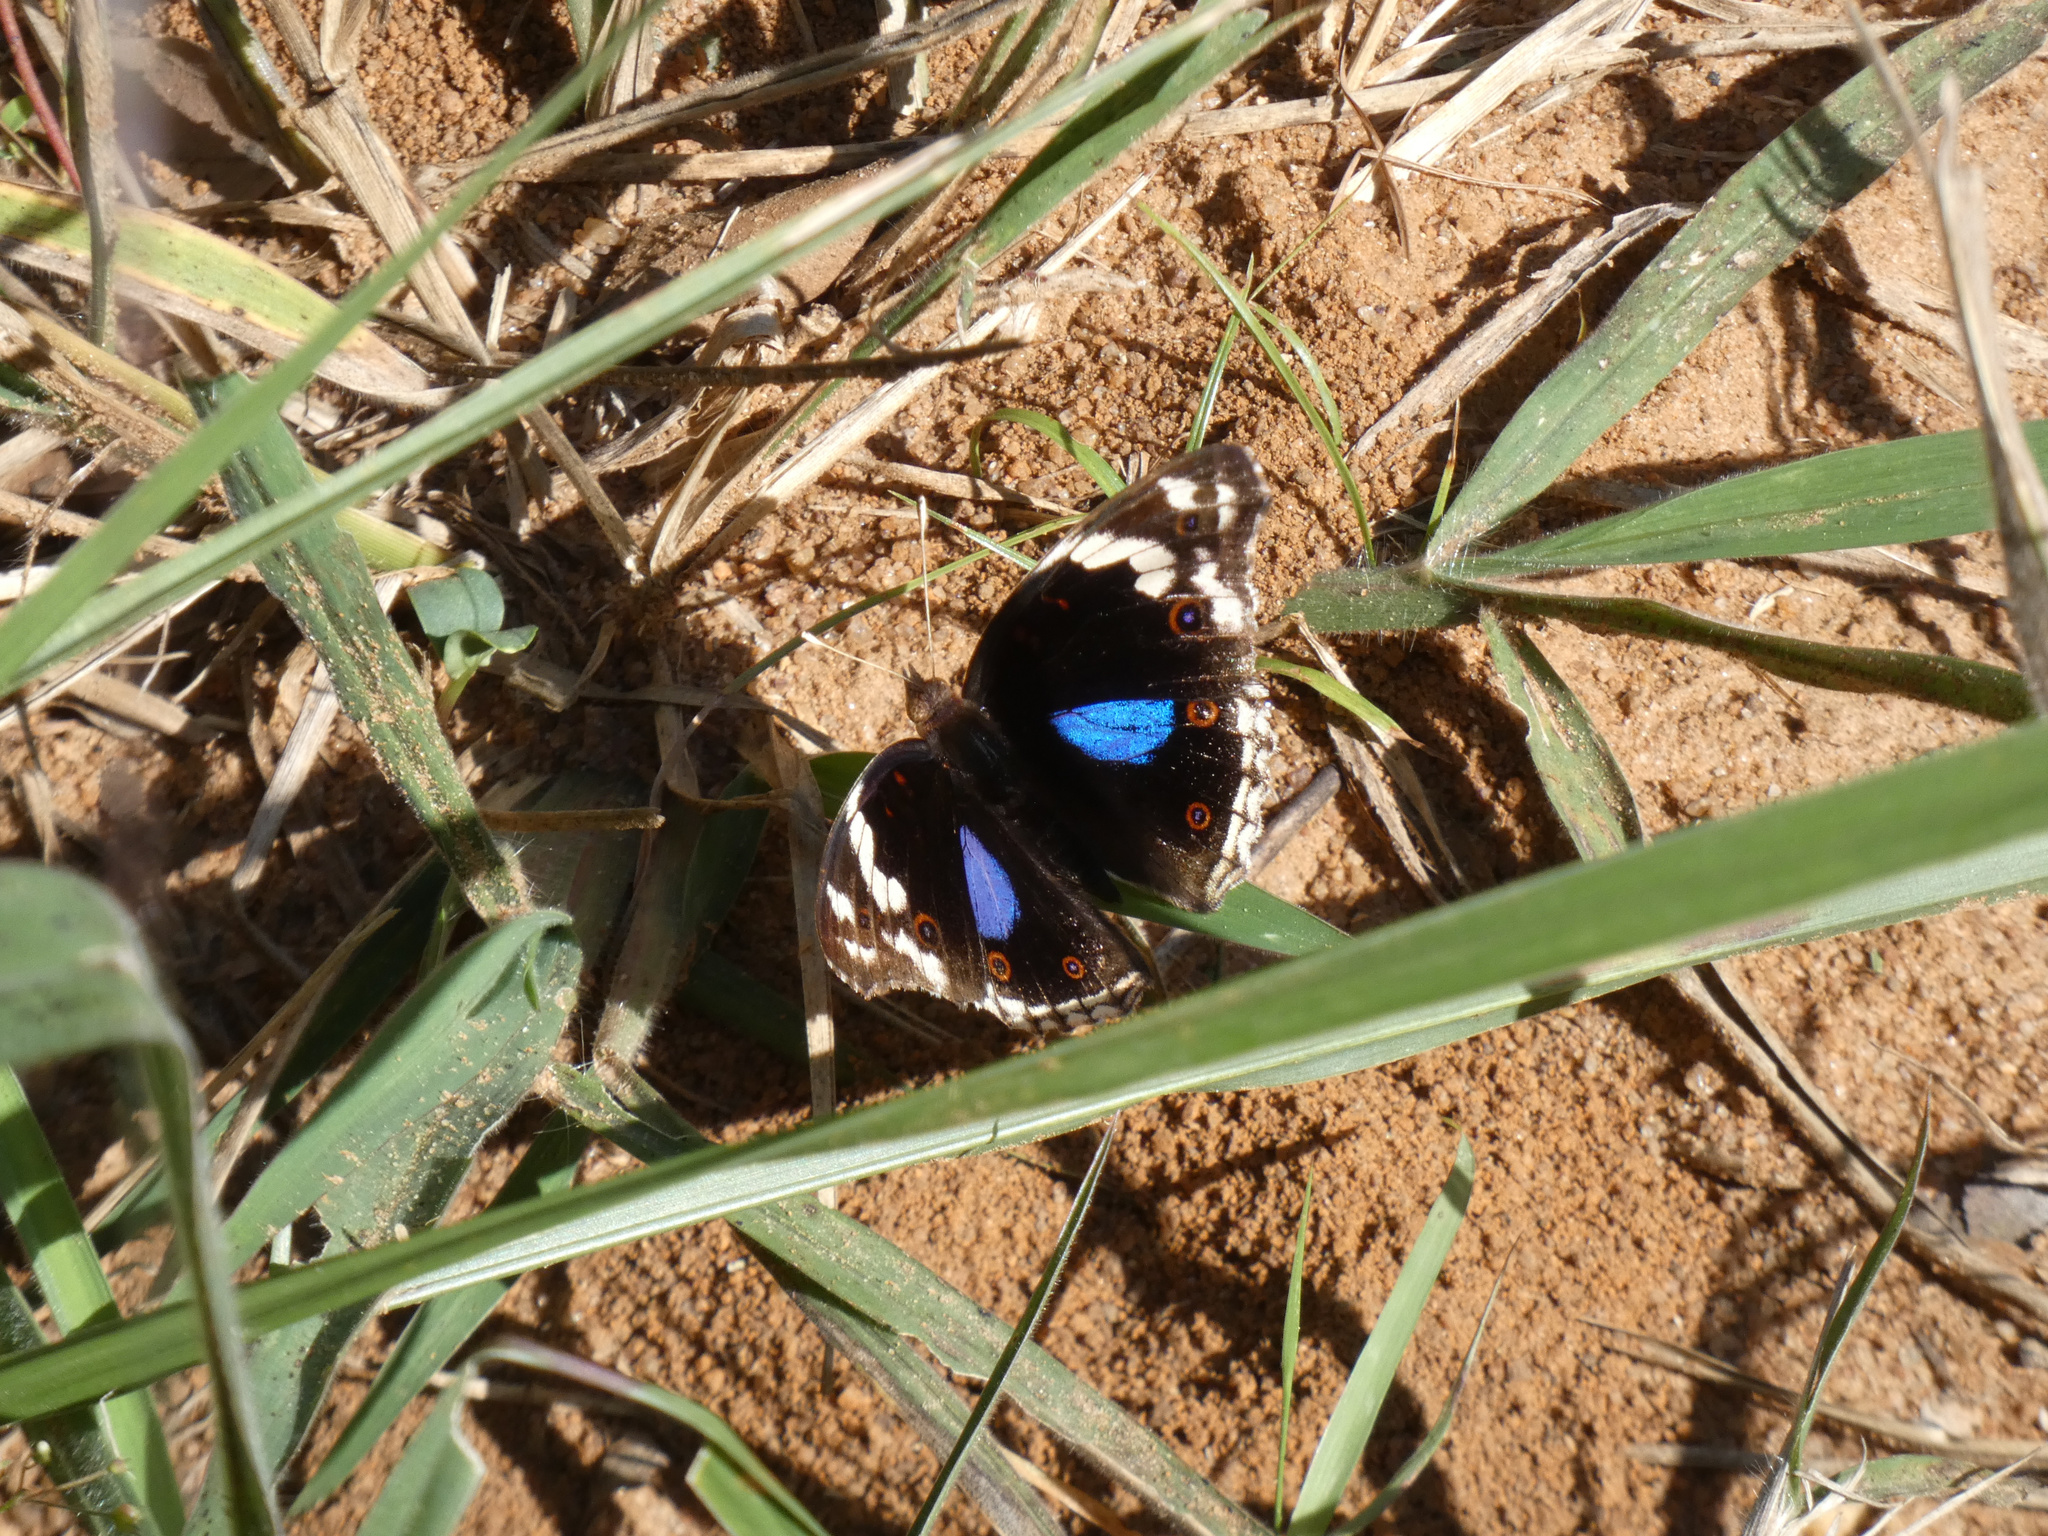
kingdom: Animalia
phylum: Arthropoda
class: Insecta
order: Lepidoptera
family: Nymphalidae
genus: Junonia
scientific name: Junonia oenone
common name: Dark blue pansy
